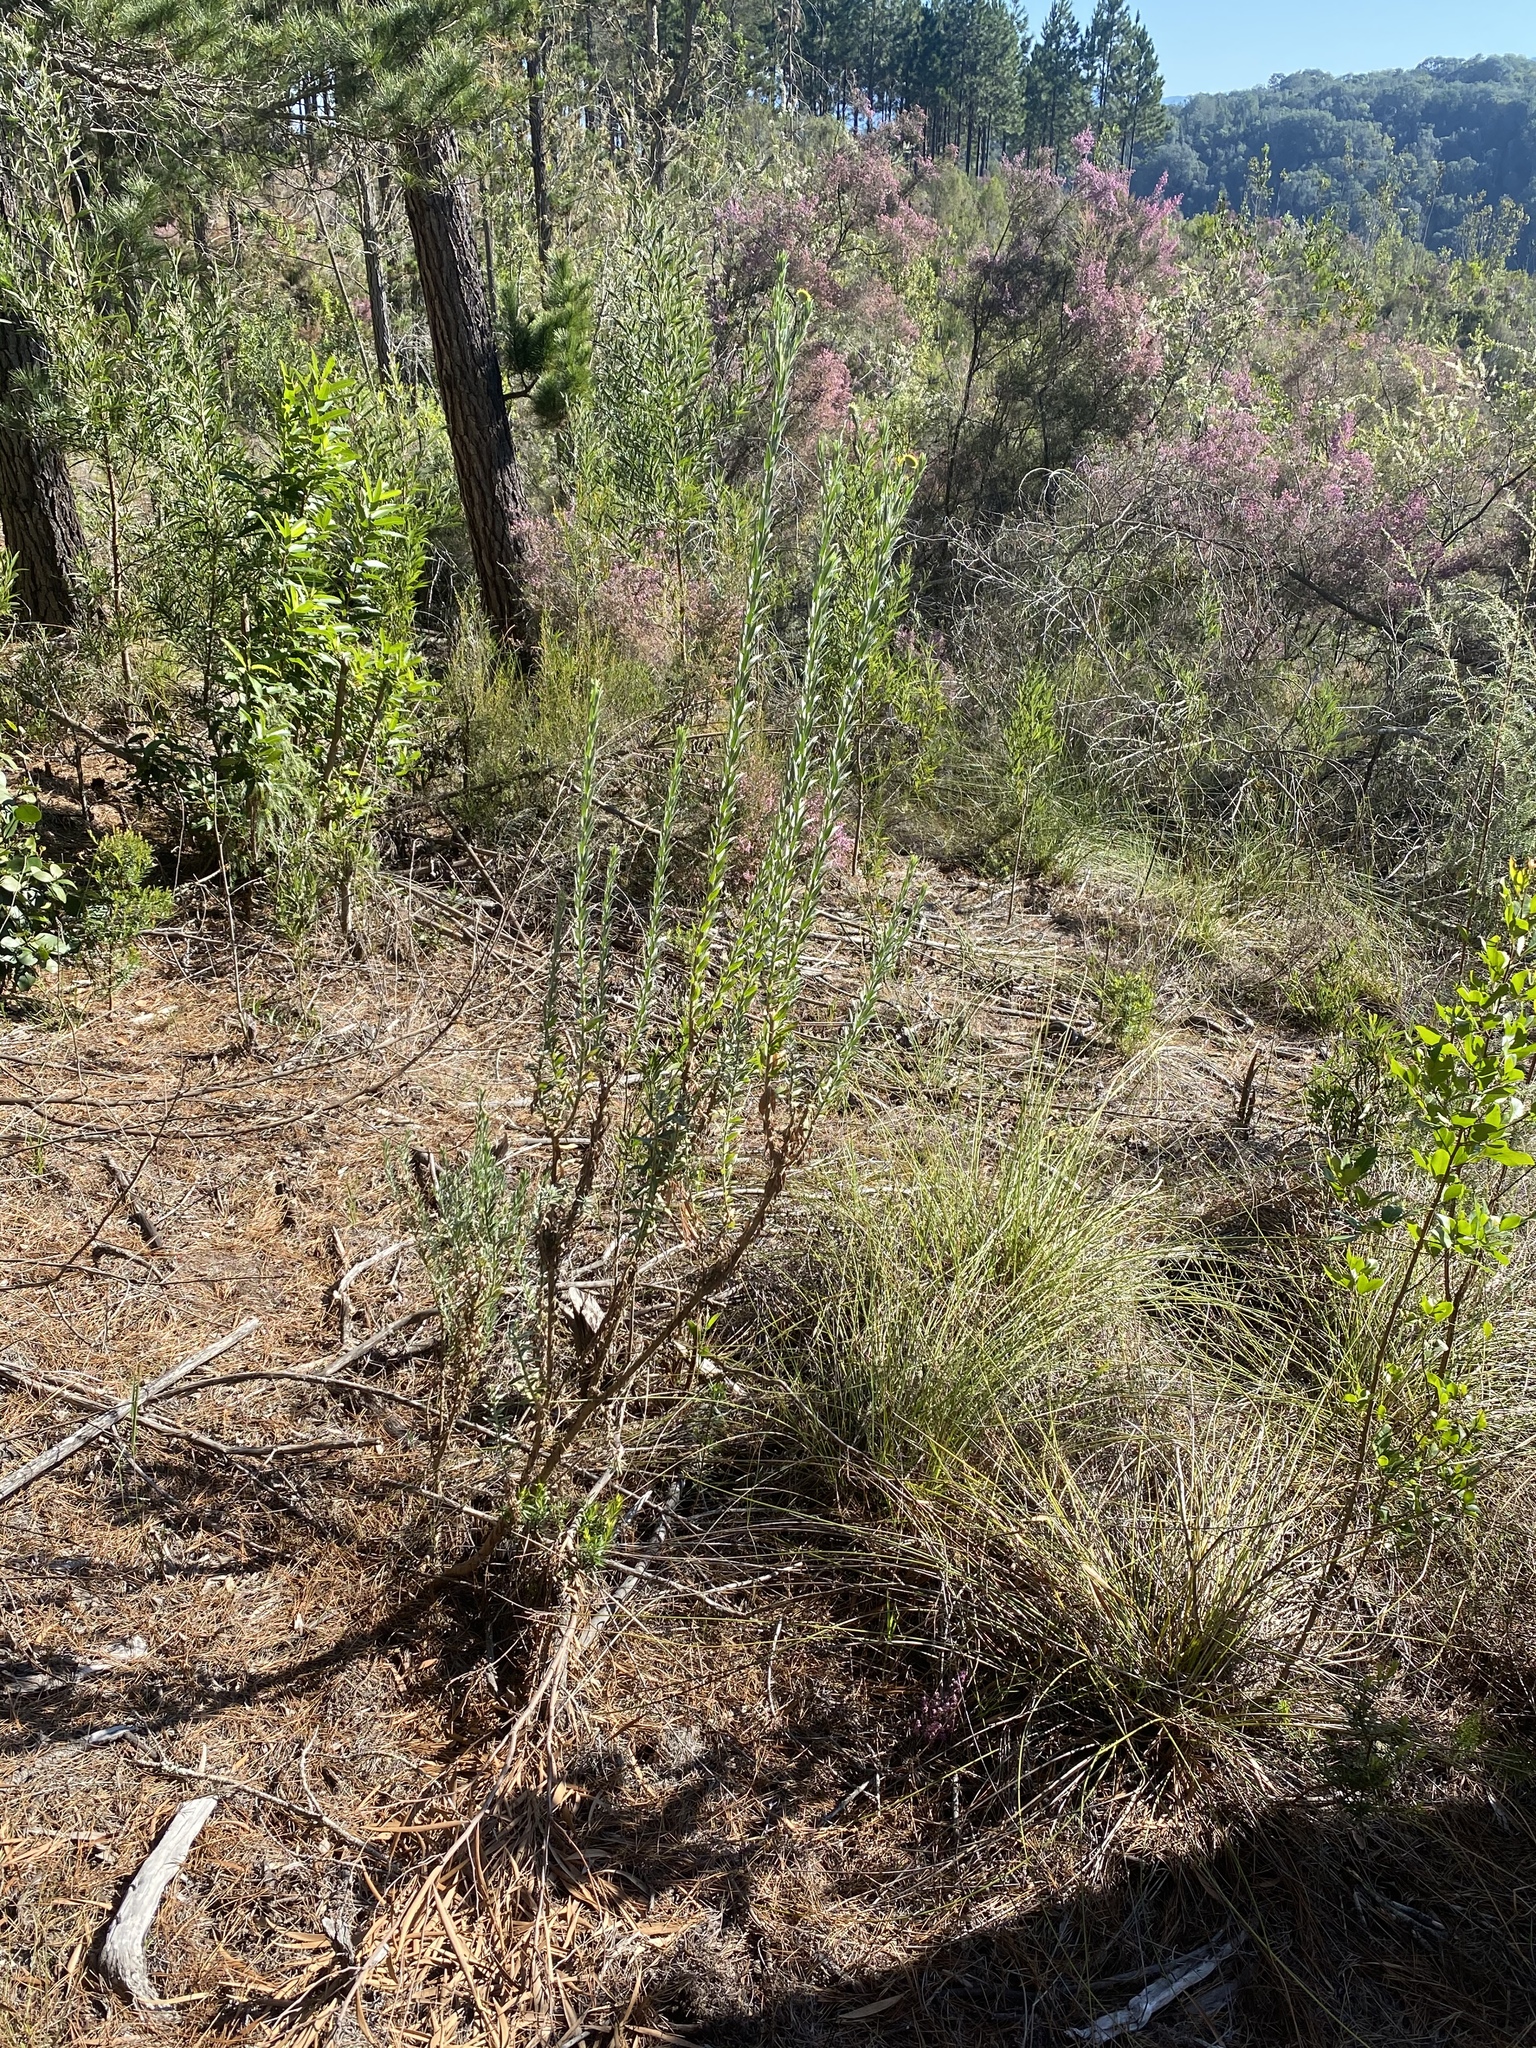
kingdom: Plantae
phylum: Tracheophyta
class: Magnoliopsida
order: Asterales
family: Asteraceae
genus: Schistostephium
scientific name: Schistostephium umbellatum
